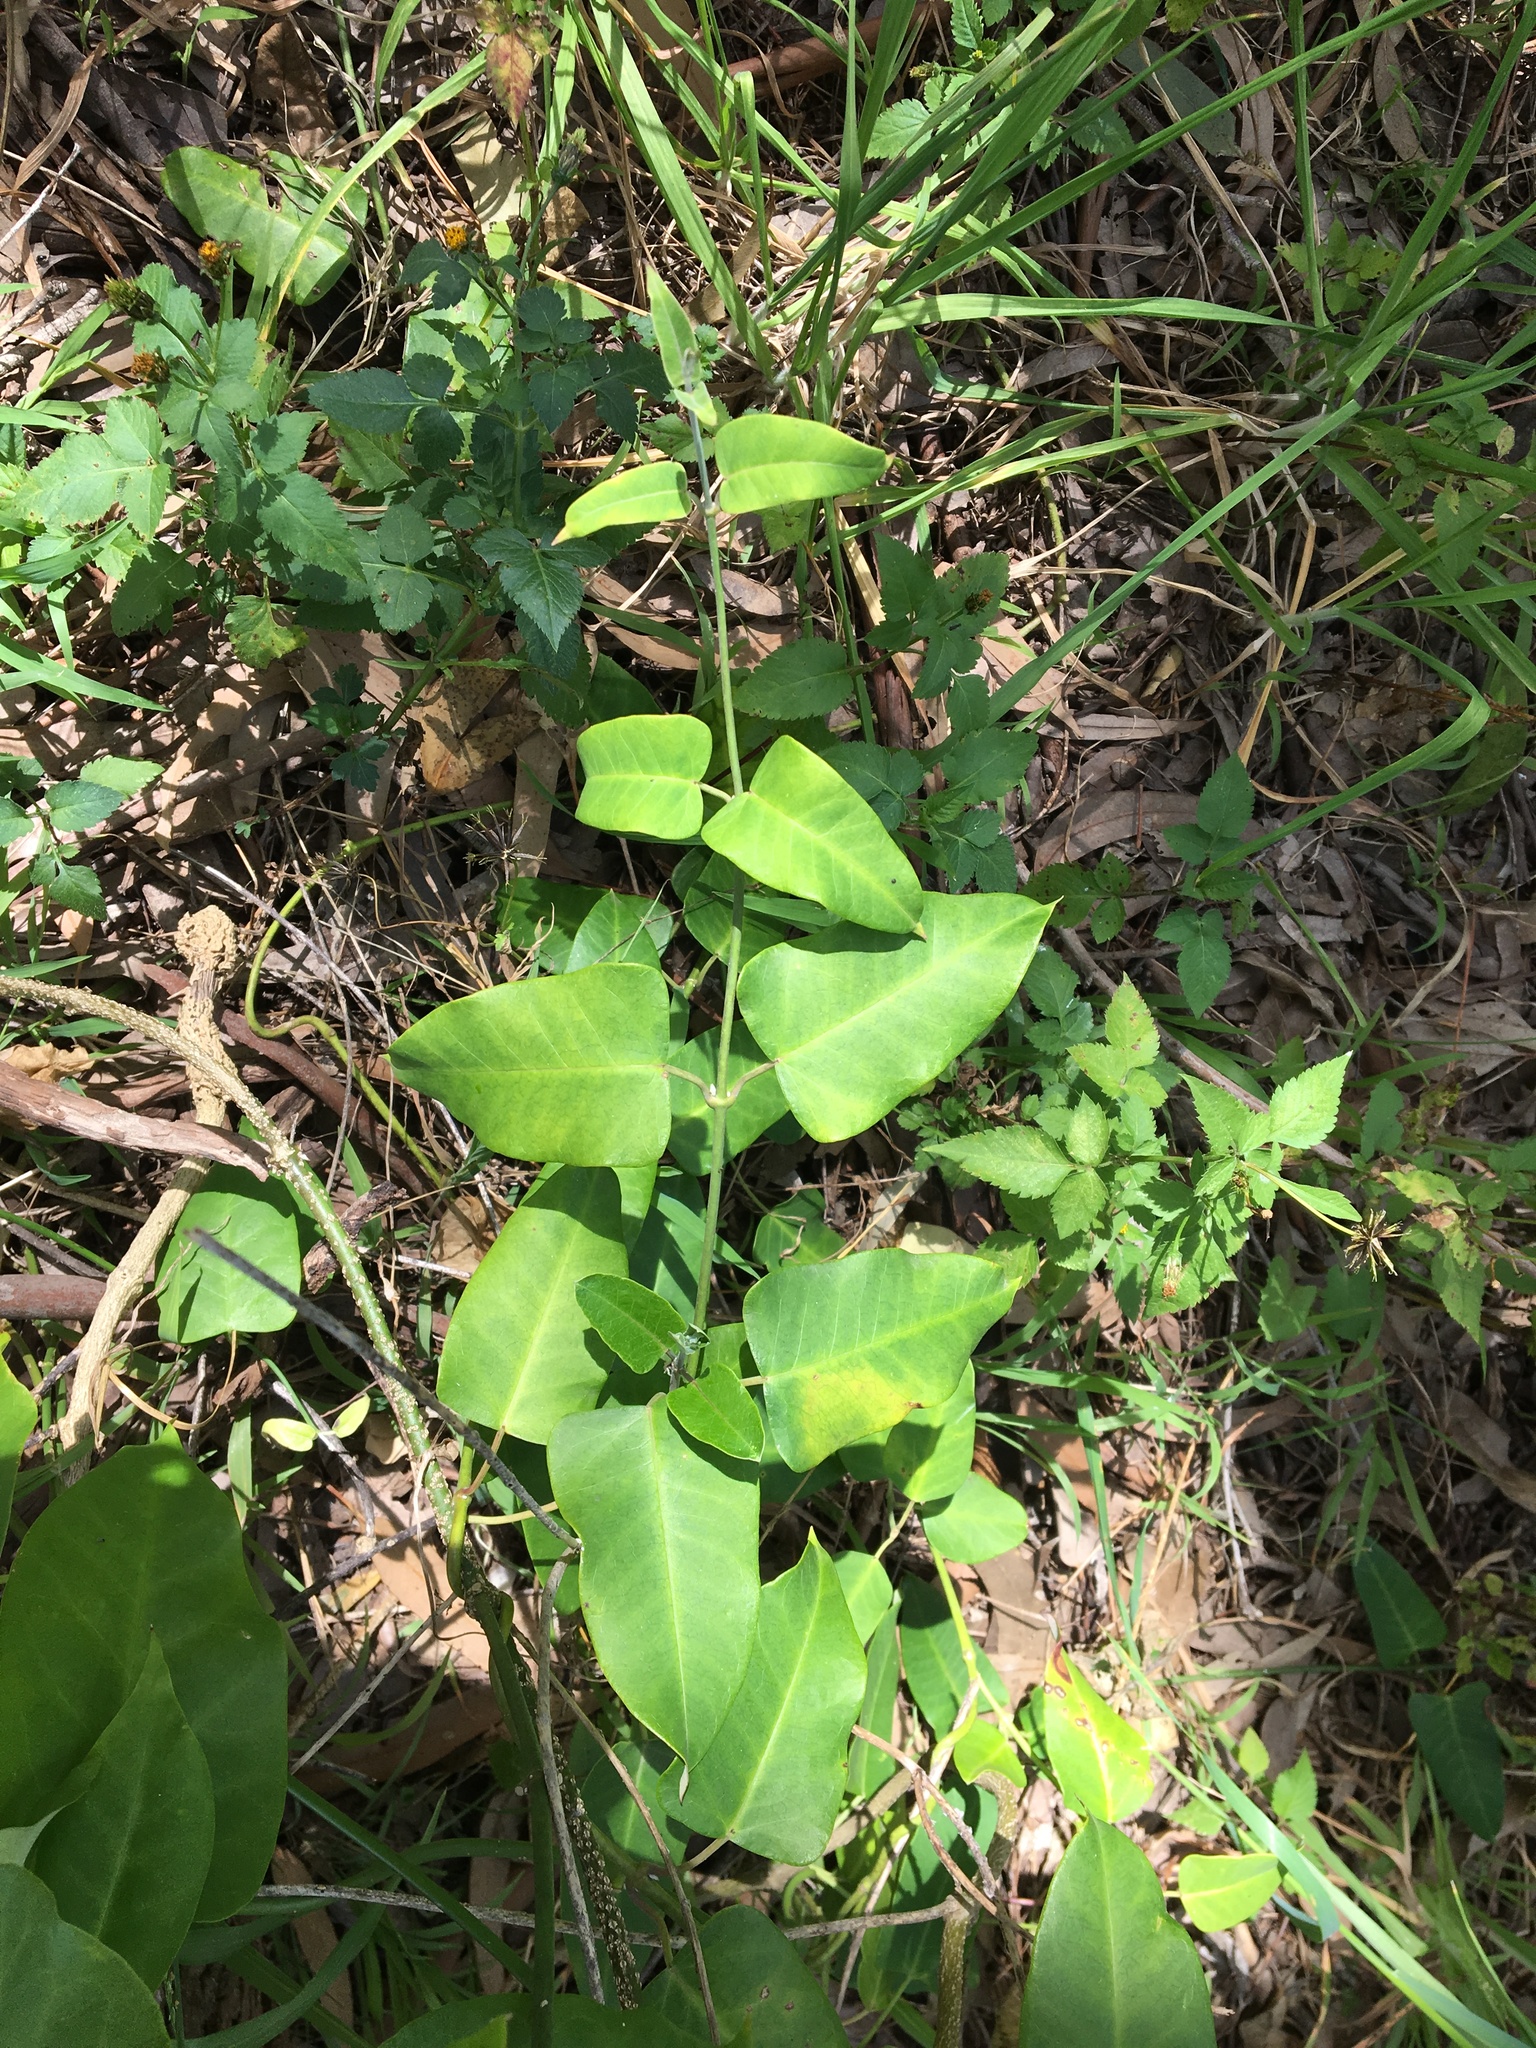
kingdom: Plantae
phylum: Tracheophyta
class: Magnoliopsida
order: Gentianales
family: Apocynaceae
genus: Araujia
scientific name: Araujia sericifera
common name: White bladderflower
